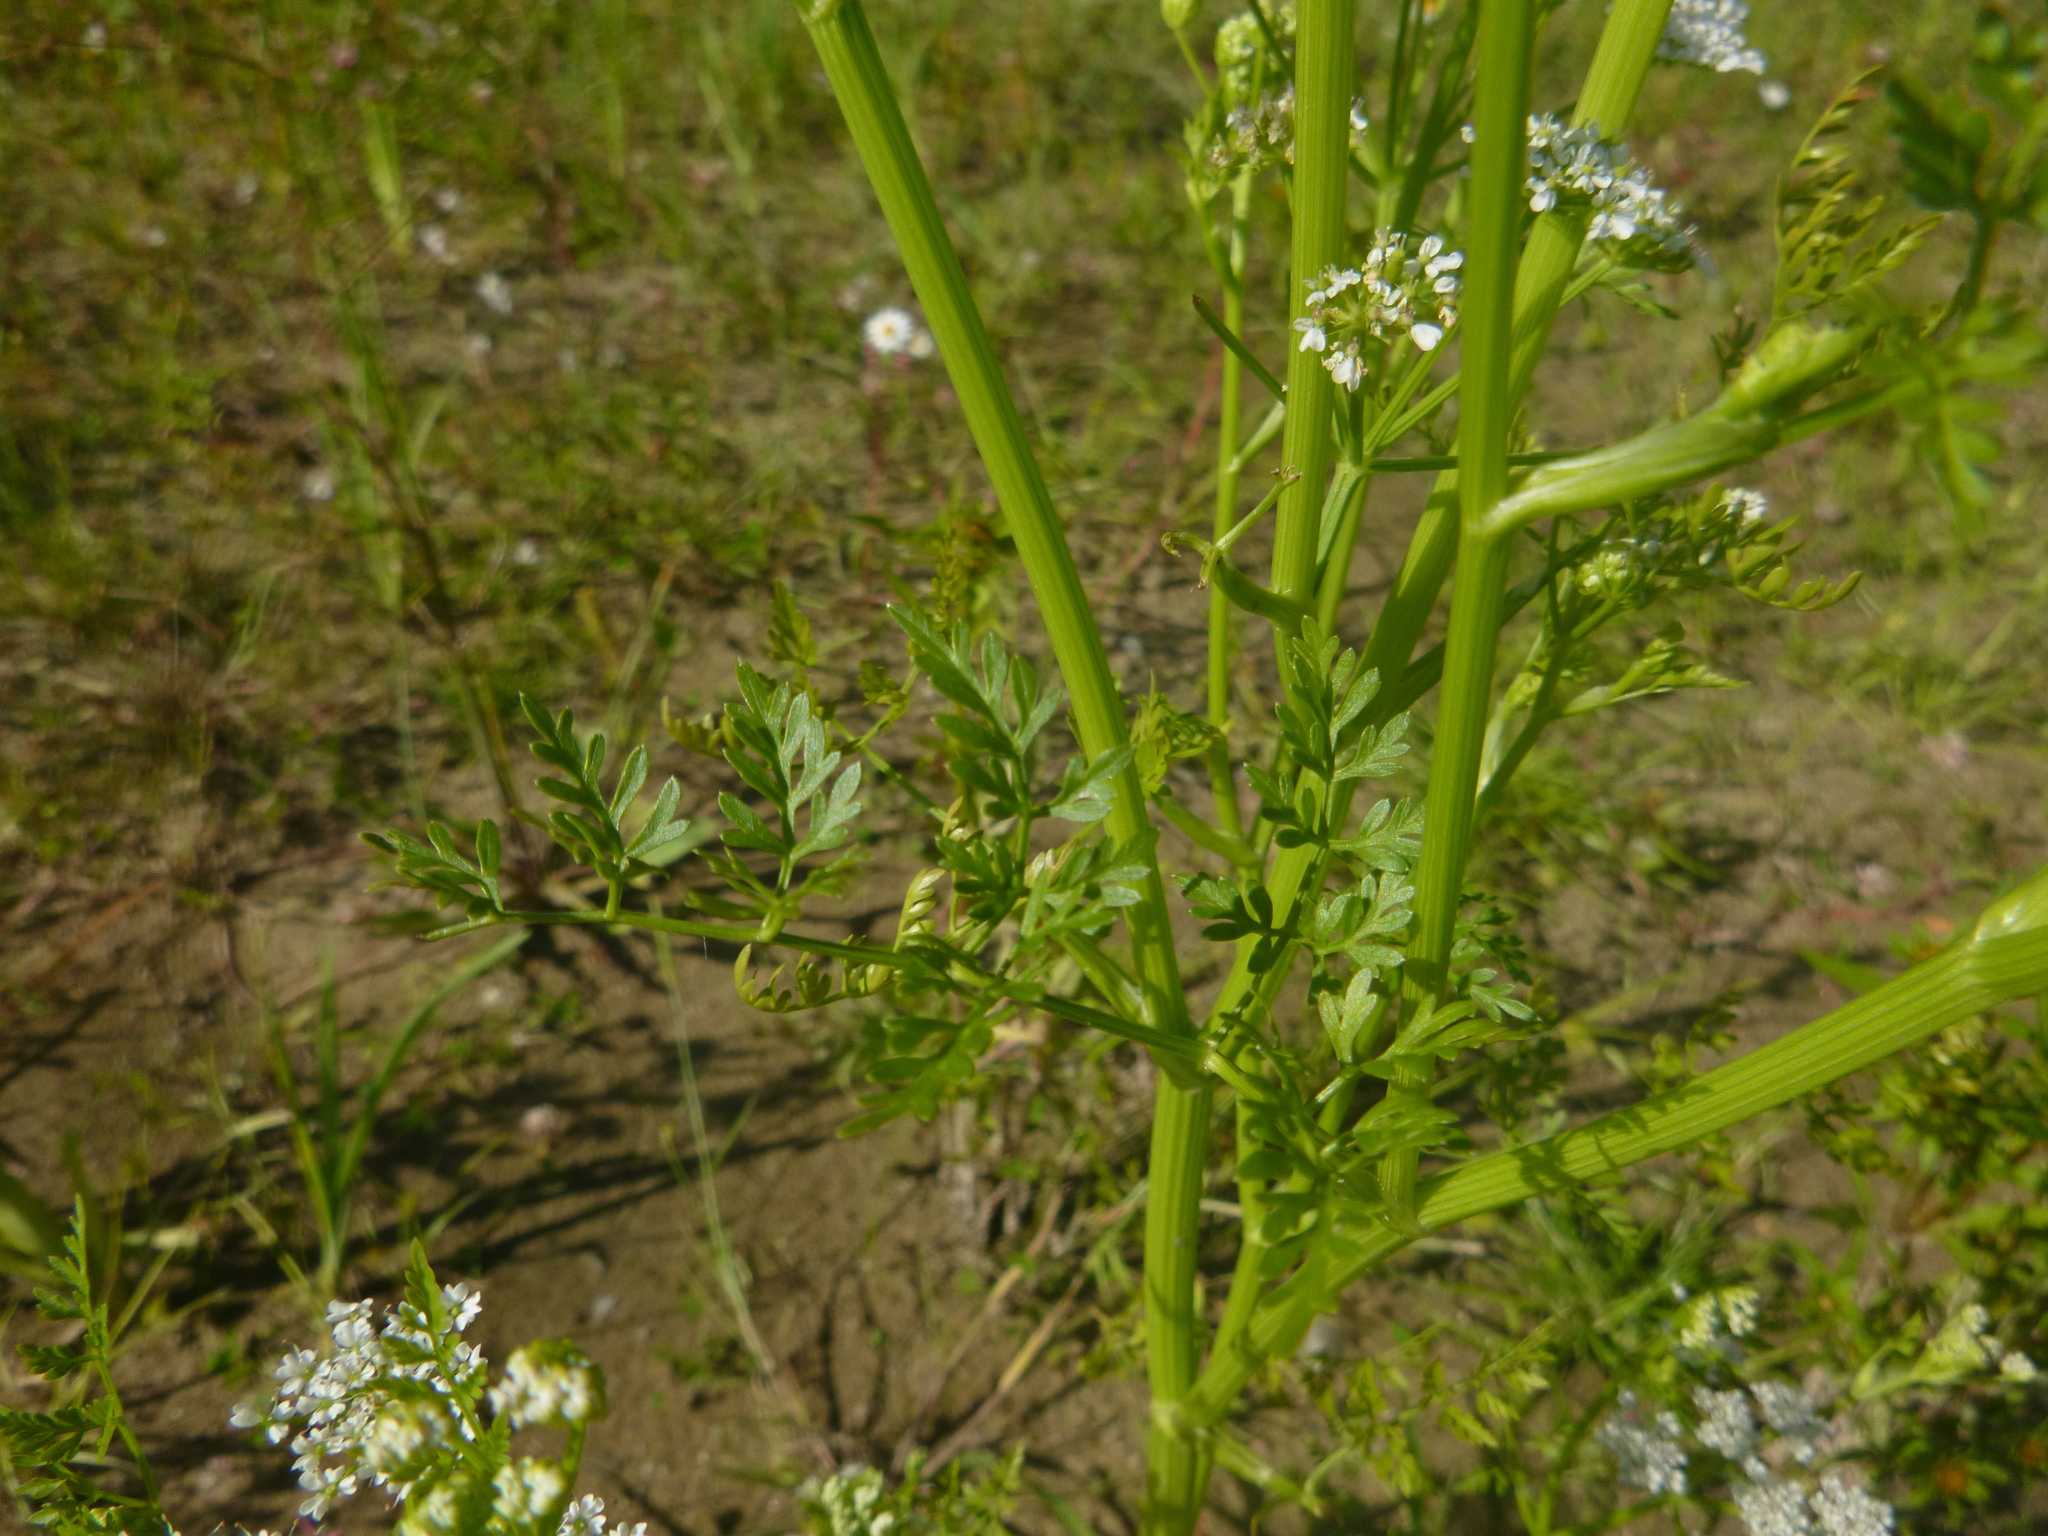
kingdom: Plantae
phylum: Tracheophyta
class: Magnoliopsida
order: Apiales
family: Apiaceae
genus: Oenanthe
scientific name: Oenanthe aquatica
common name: Fine-leaved water-dropwort
